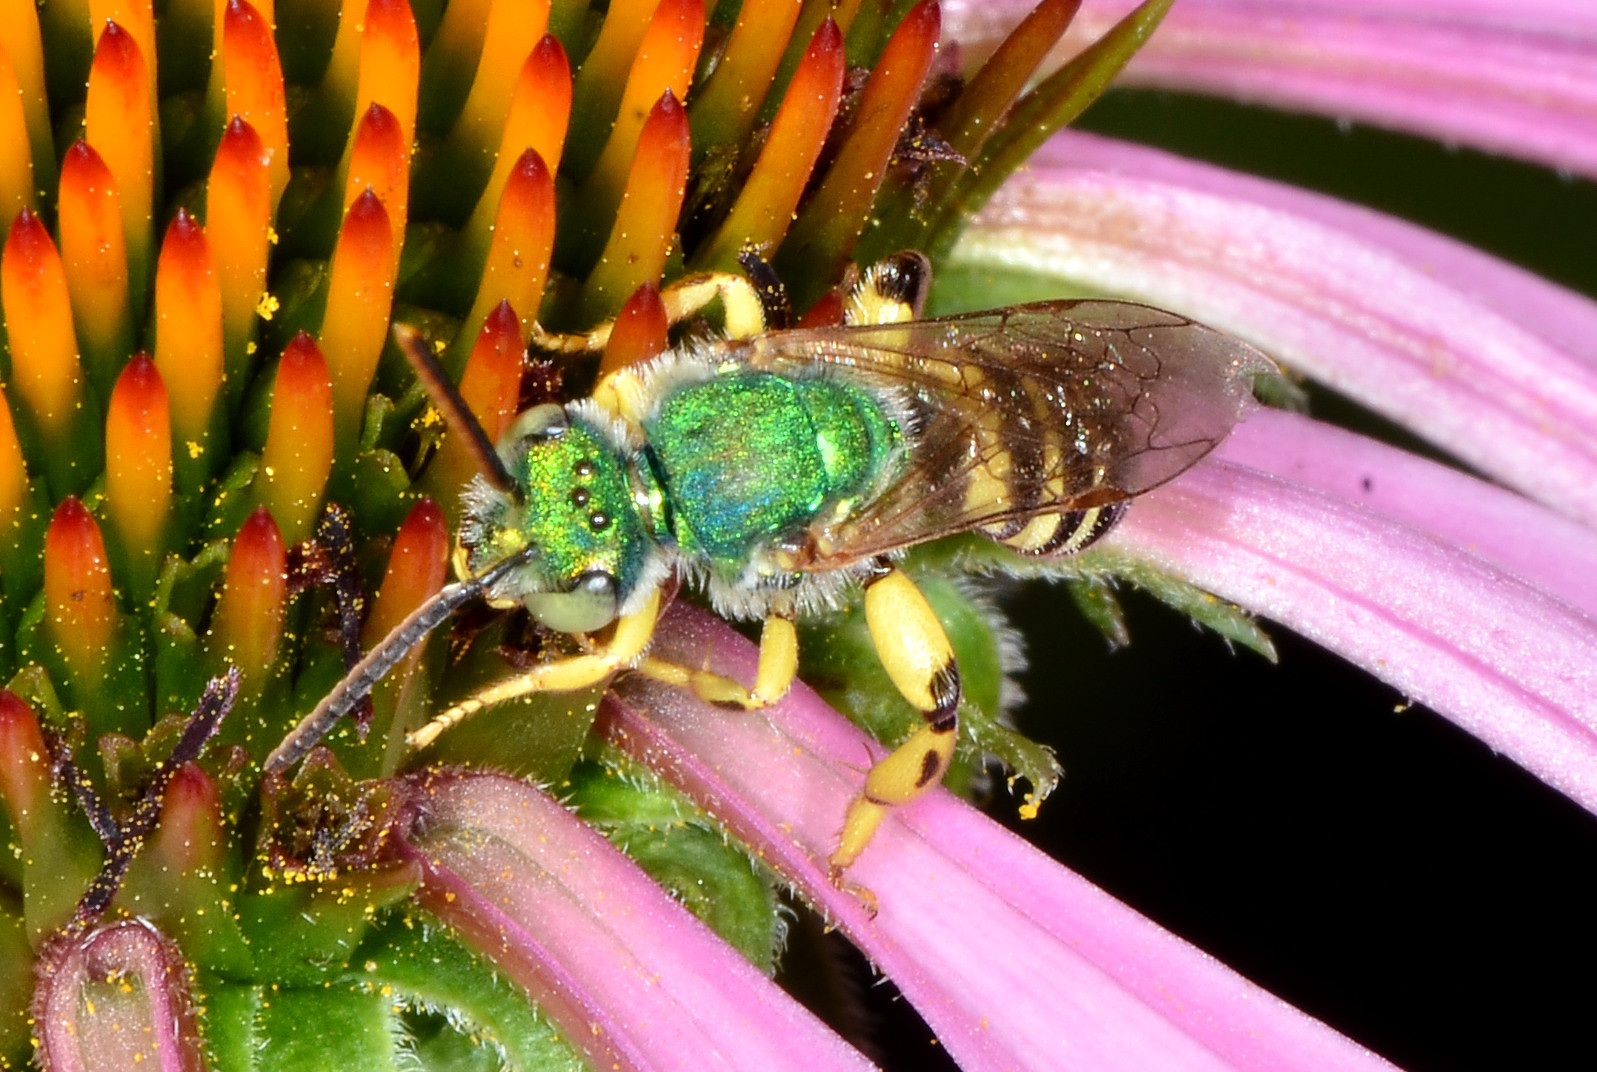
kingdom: Animalia
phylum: Arthropoda
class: Insecta
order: Hymenoptera
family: Halictidae
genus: Agapostemon
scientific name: Agapostemon texanus
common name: Texas striped sweat bee
